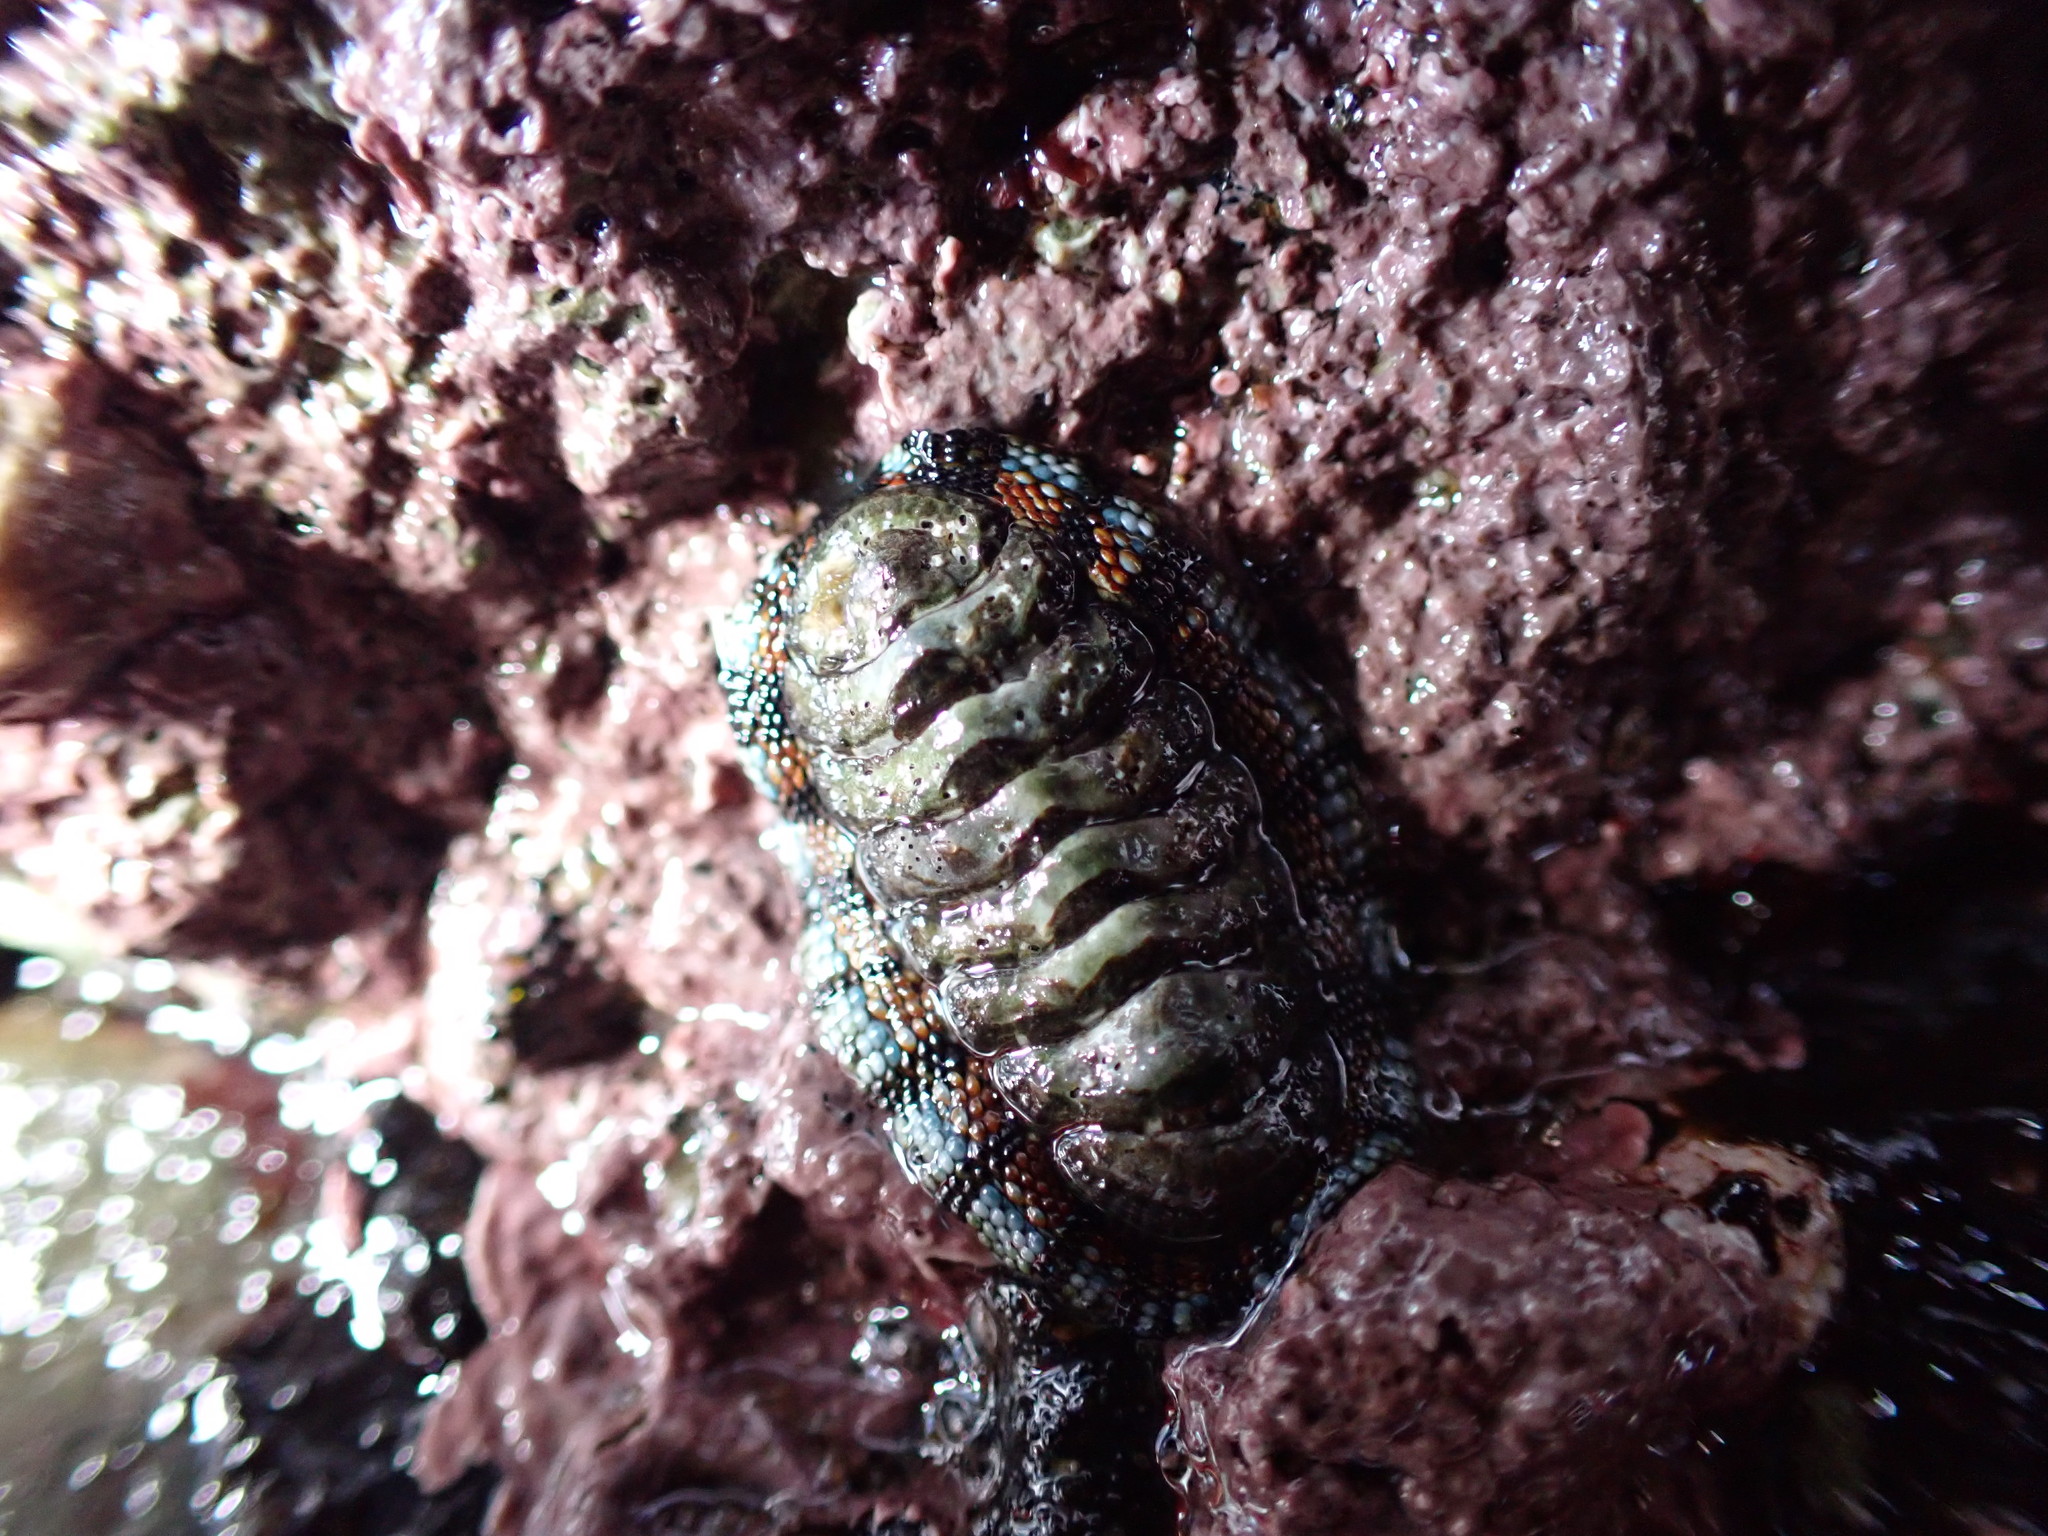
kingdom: Animalia
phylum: Mollusca
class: Polyplacophora
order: Chitonida
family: Chitonidae
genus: Sypharochiton
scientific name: Sypharochiton sinclairi
